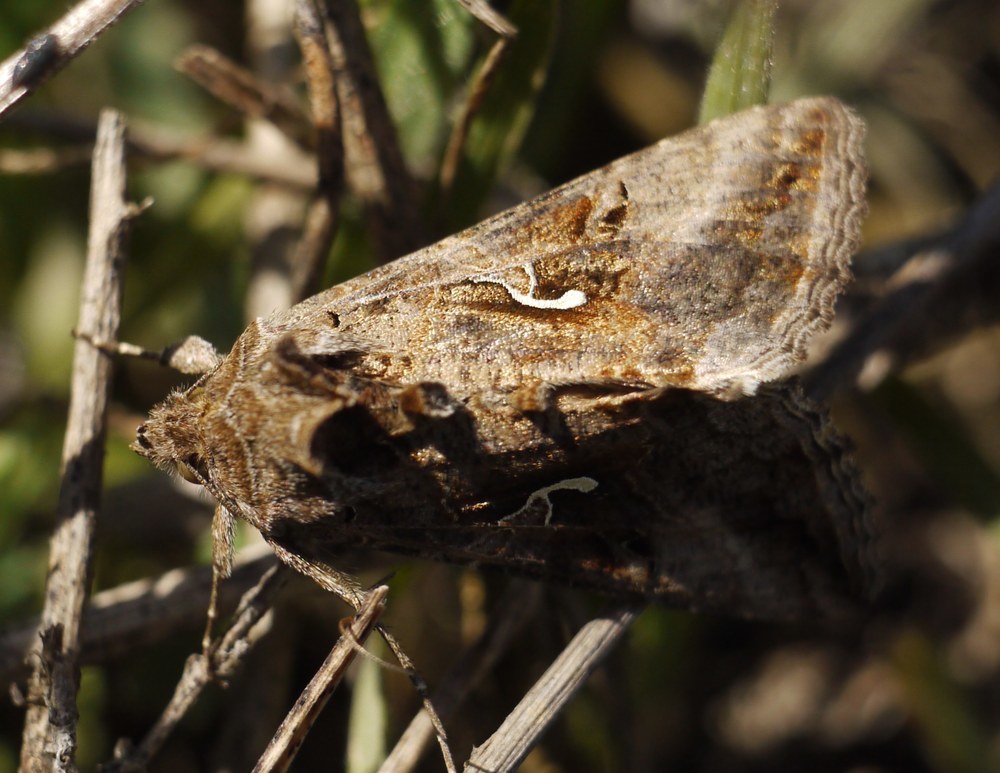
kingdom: Animalia
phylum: Arthropoda
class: Insecta
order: Lepidoptera
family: Noctuidae
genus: Autographa
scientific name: Autographa gamma
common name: Silver y
